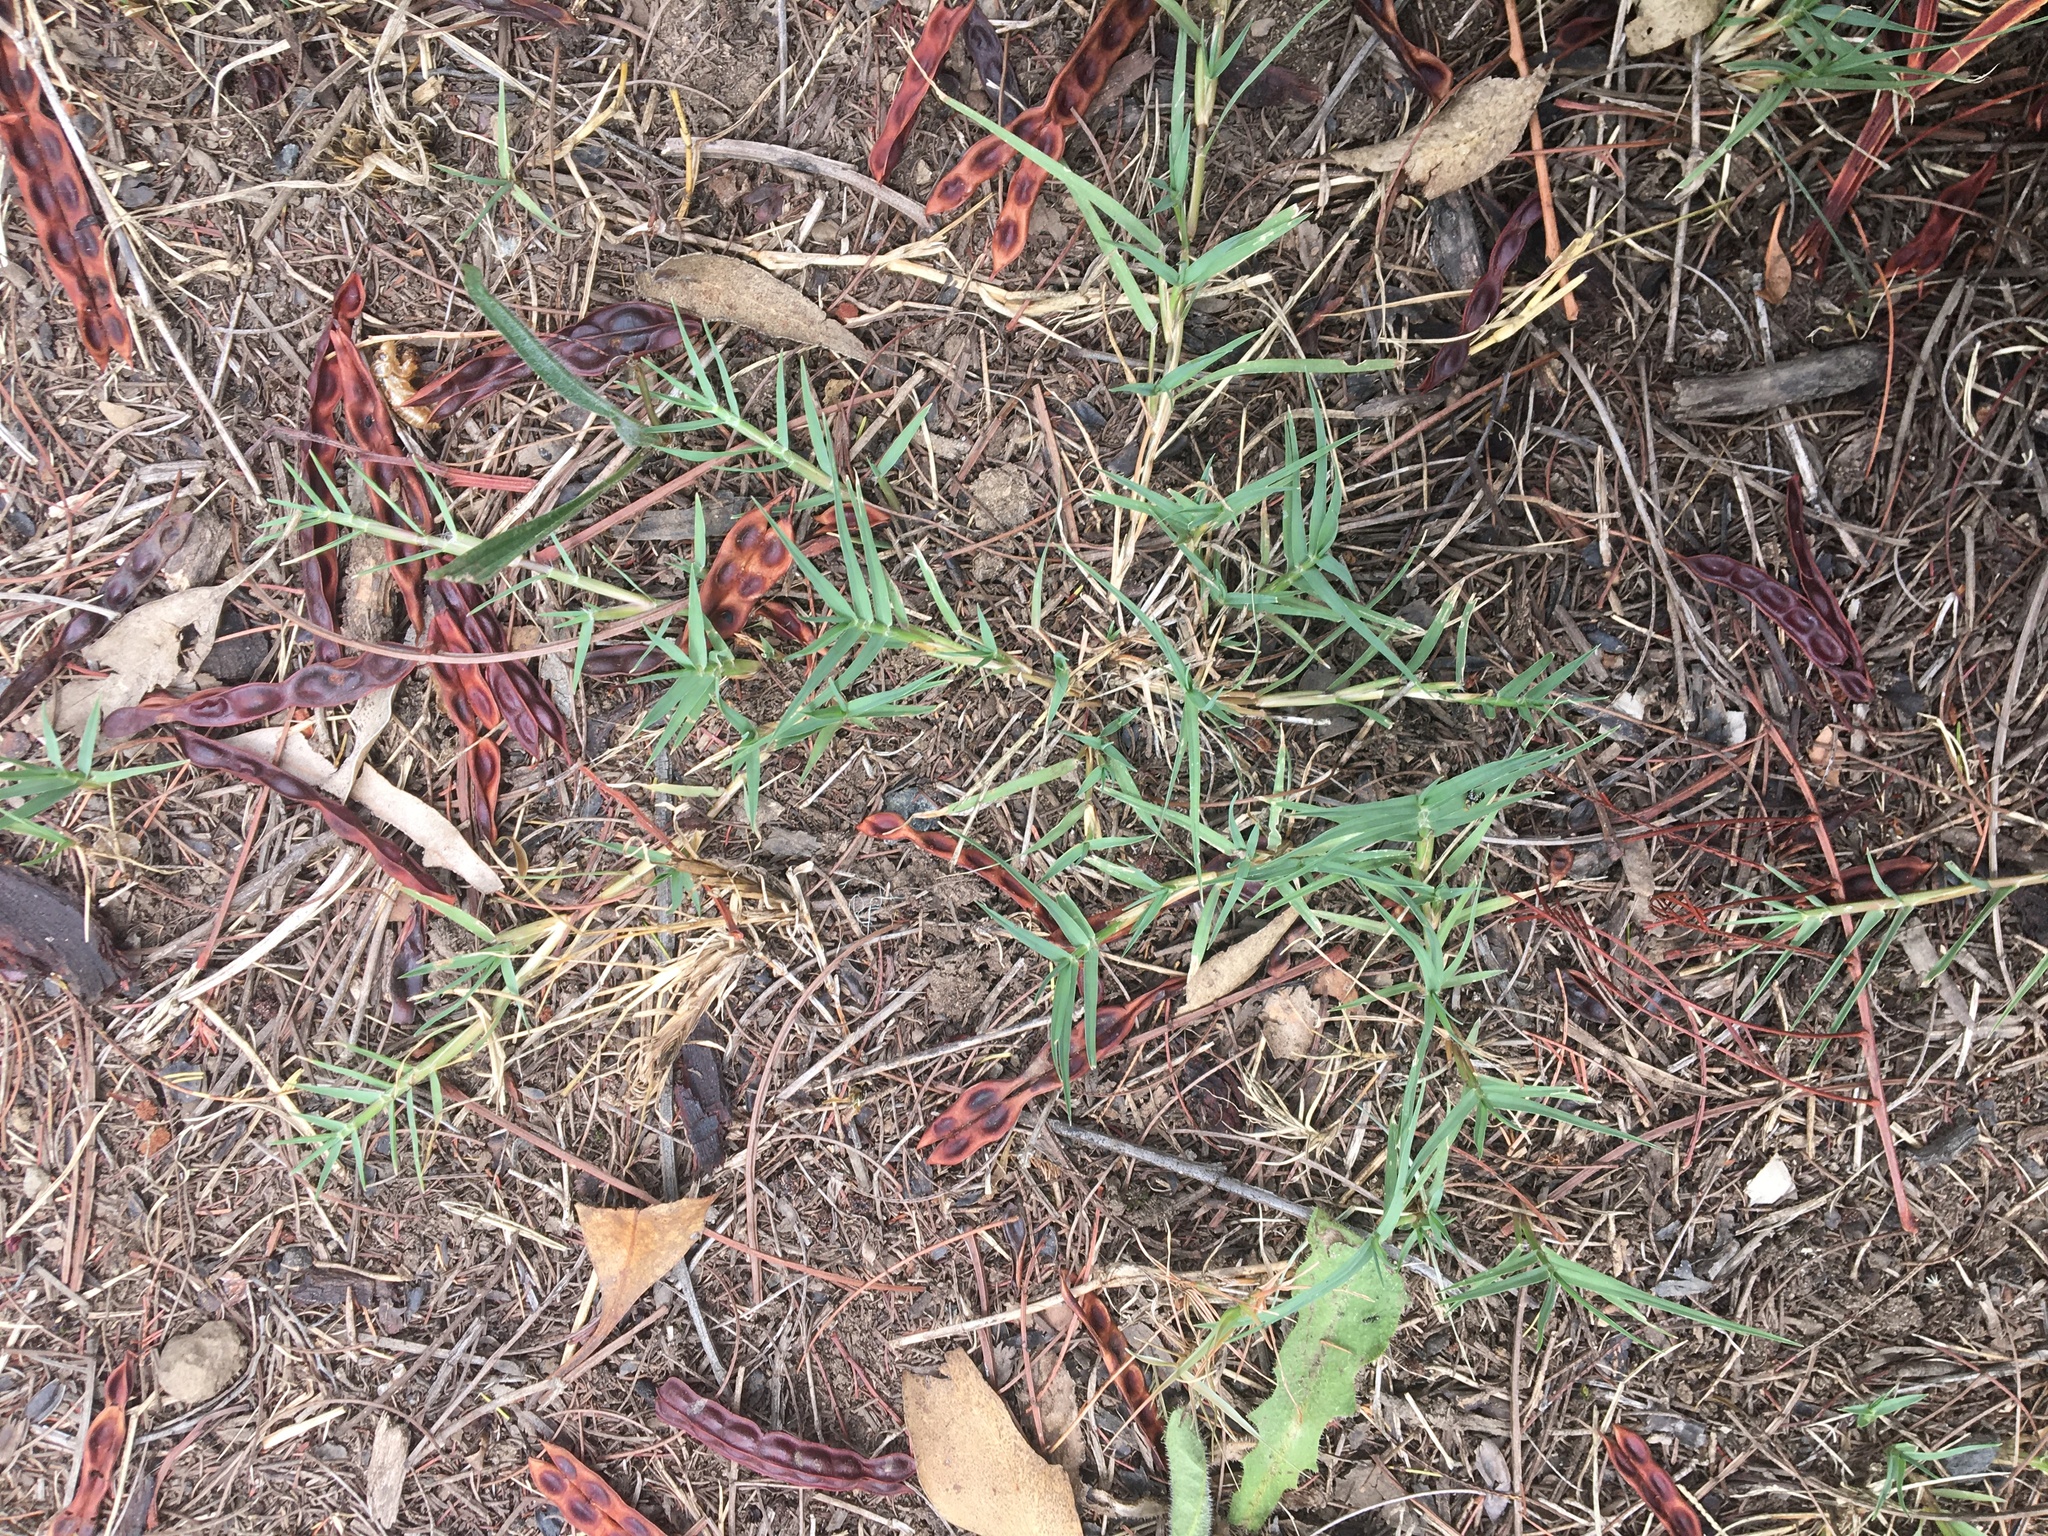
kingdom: Plantae
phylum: Tracheophyta
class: Liliopsida
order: Poales
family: Poaceae
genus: Cynodon
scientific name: Cynodon dactylon
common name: Bermuda grass
